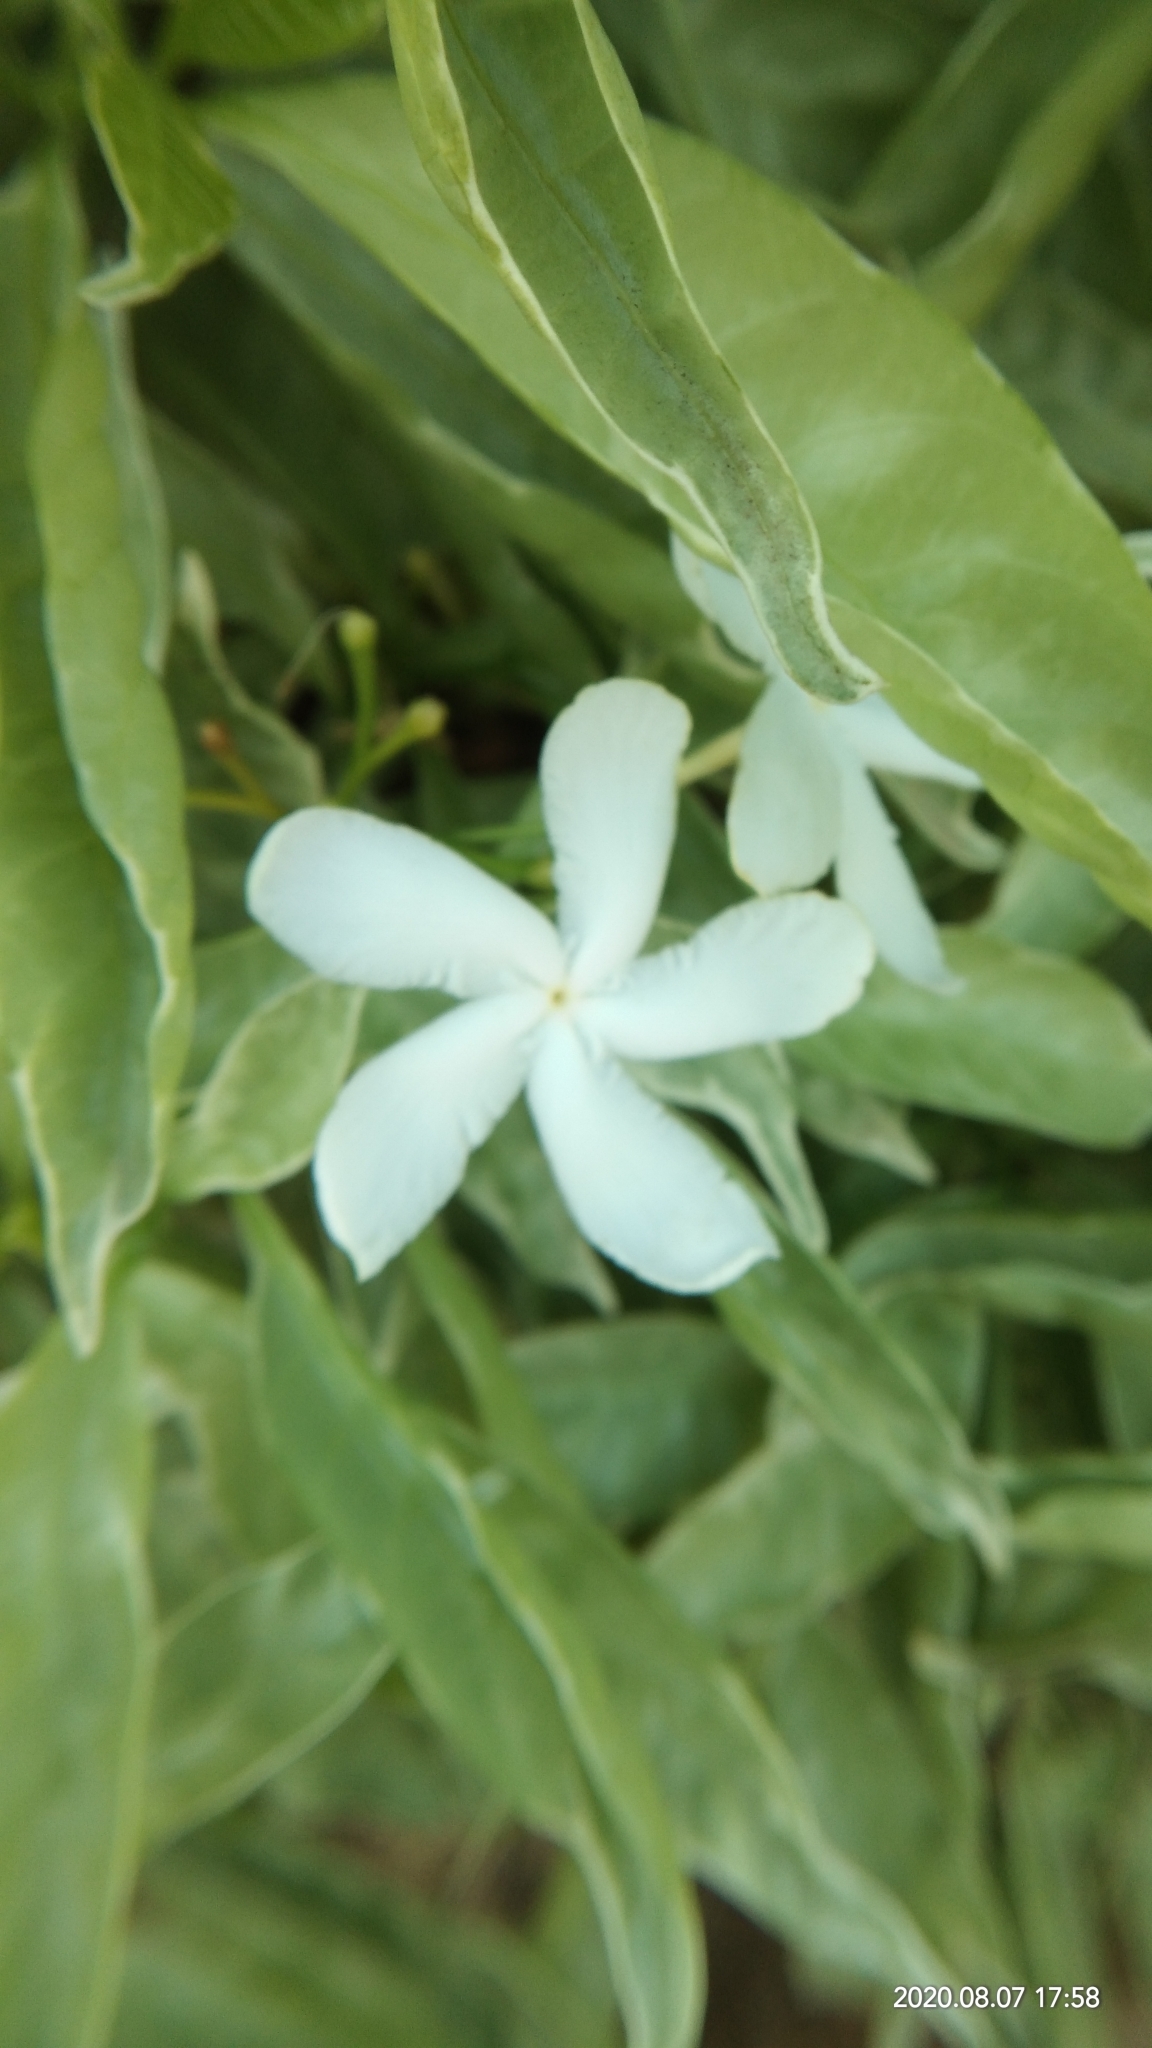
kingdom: Plantae
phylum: Tracheophyta
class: Magnoliopsida
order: Gentianales
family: Apocynaceae
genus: Tabernaemontana
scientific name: Tabernaemontana divaricata
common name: Pinwheelflower
